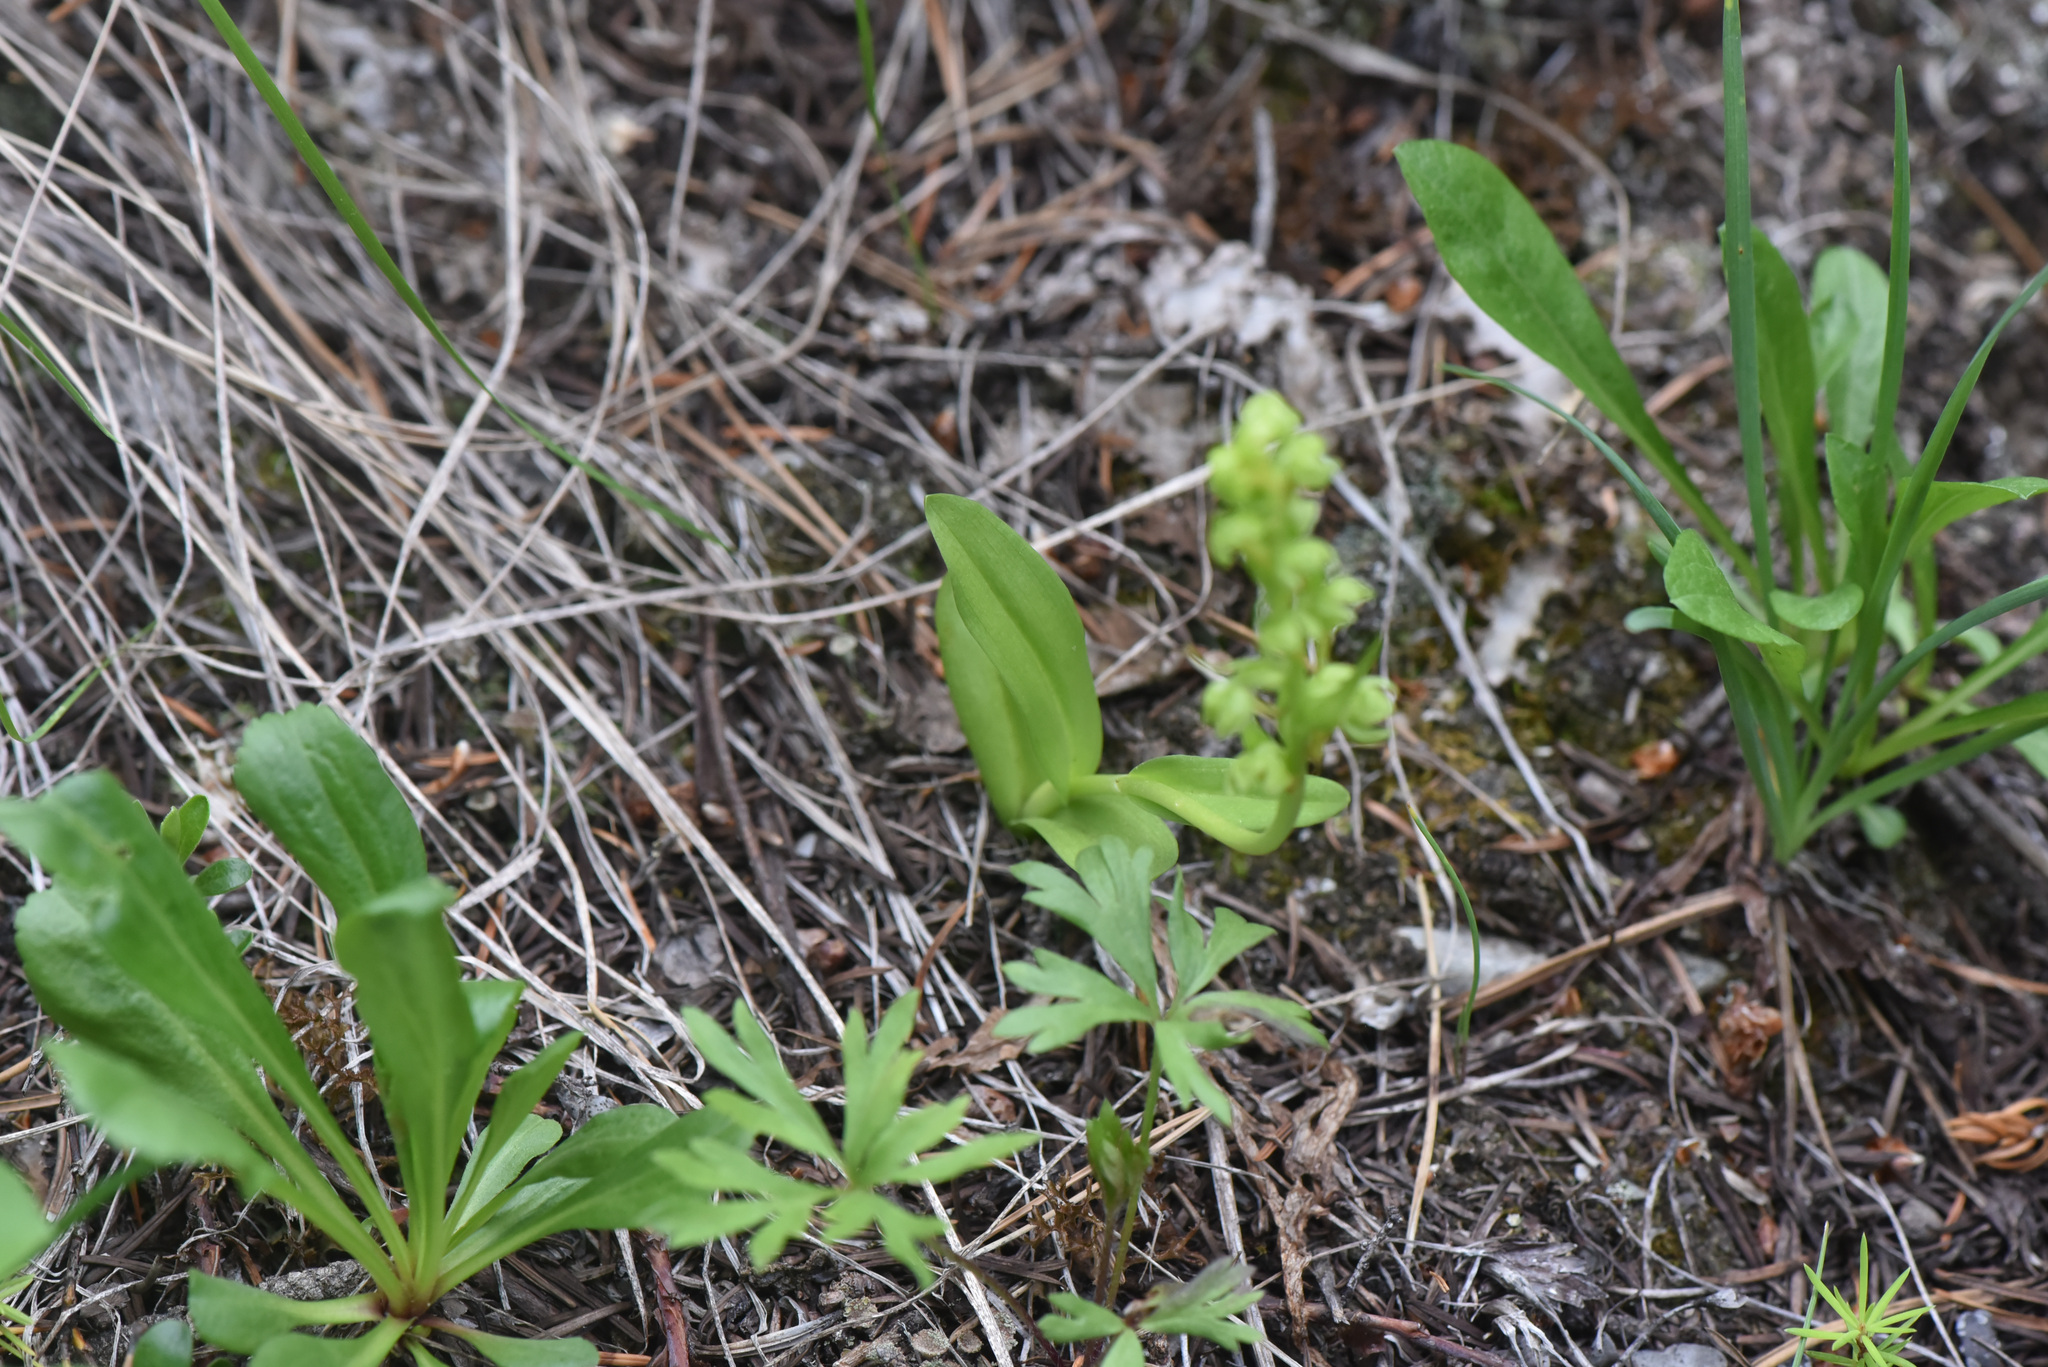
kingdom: Plantae
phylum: Tracheophyta
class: Liliopsida
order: Asparagales
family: Orchidaceae
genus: Dactylorhiza
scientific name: Dactylorhiza viridis
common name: Longbract frog orchid
